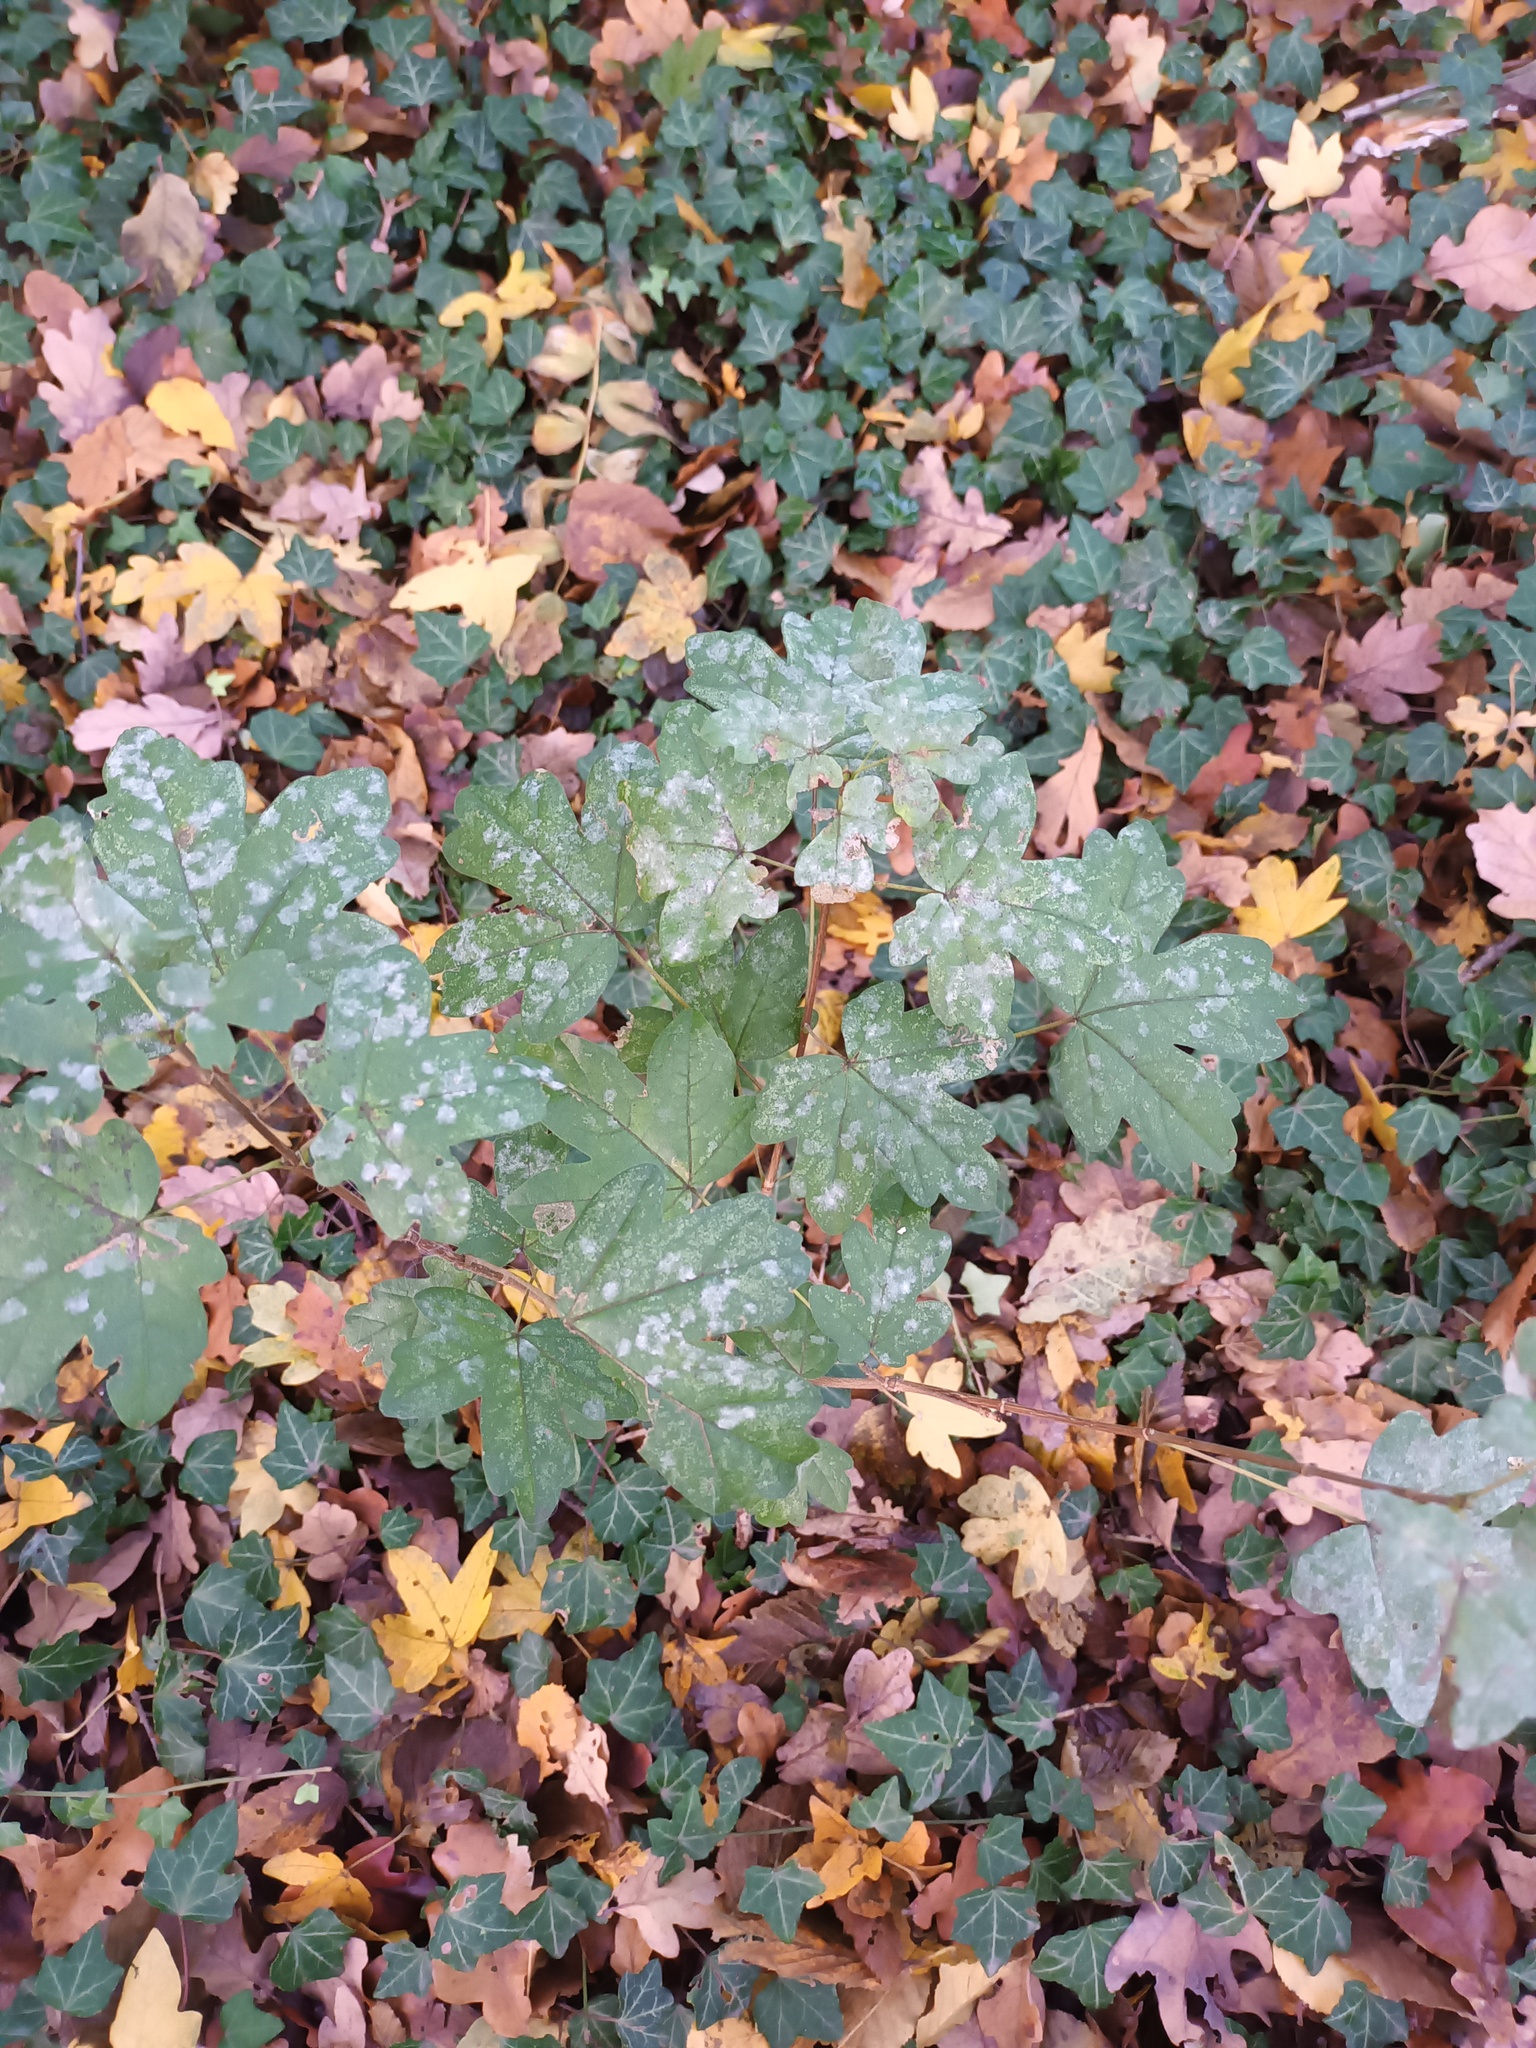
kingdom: Plantae
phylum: Tracheophyta
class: Magnoliopsida
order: Sapindales
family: Sapindaceae
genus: Acer
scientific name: Acer campestre
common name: Field maple
